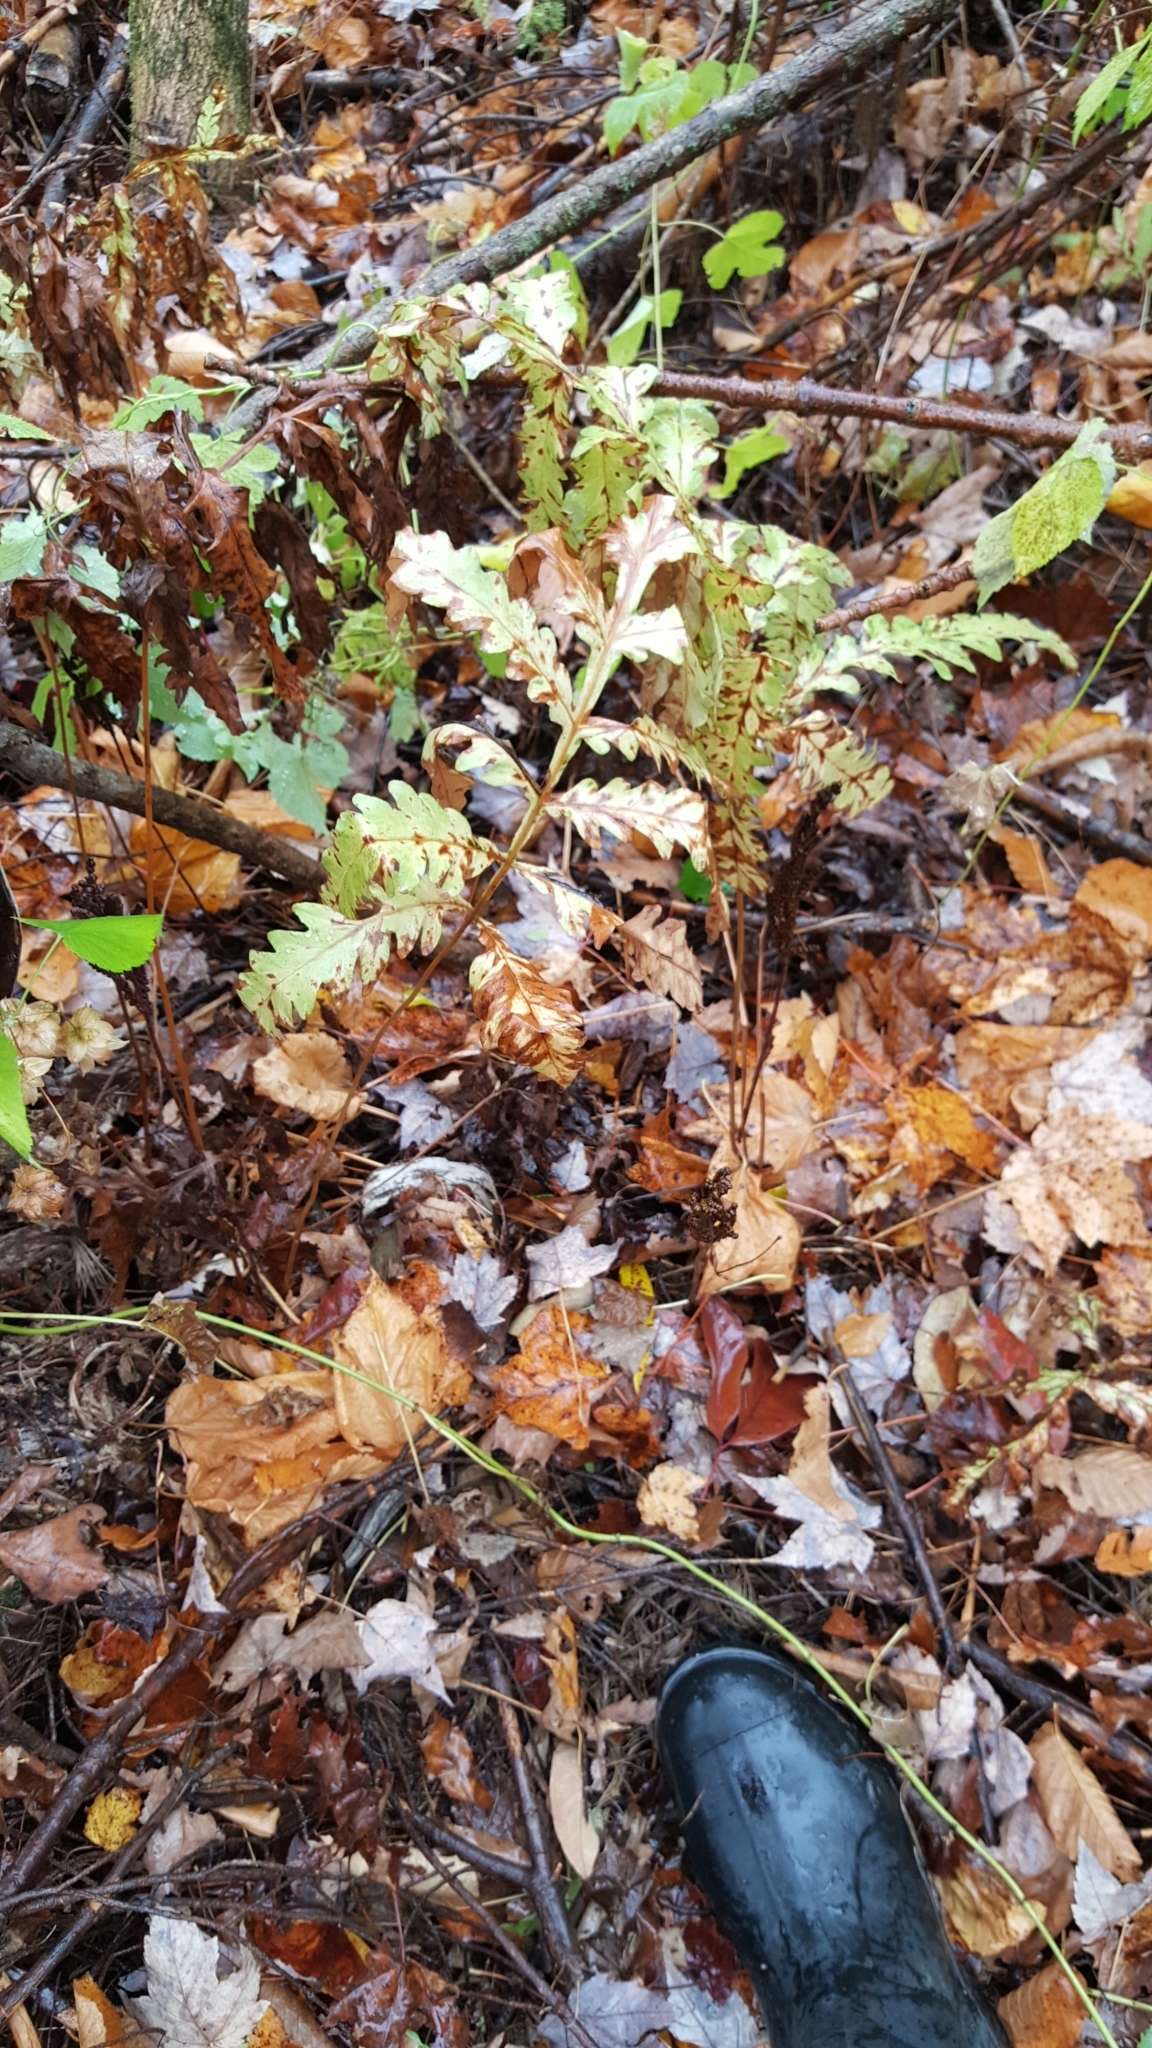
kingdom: Plantae
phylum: Tracheophyta
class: Polypodiopsida
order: Polypodiales
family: Onocleaceae
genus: Onoclea
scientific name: Onoclea sensibilis
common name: Sensitive fern
